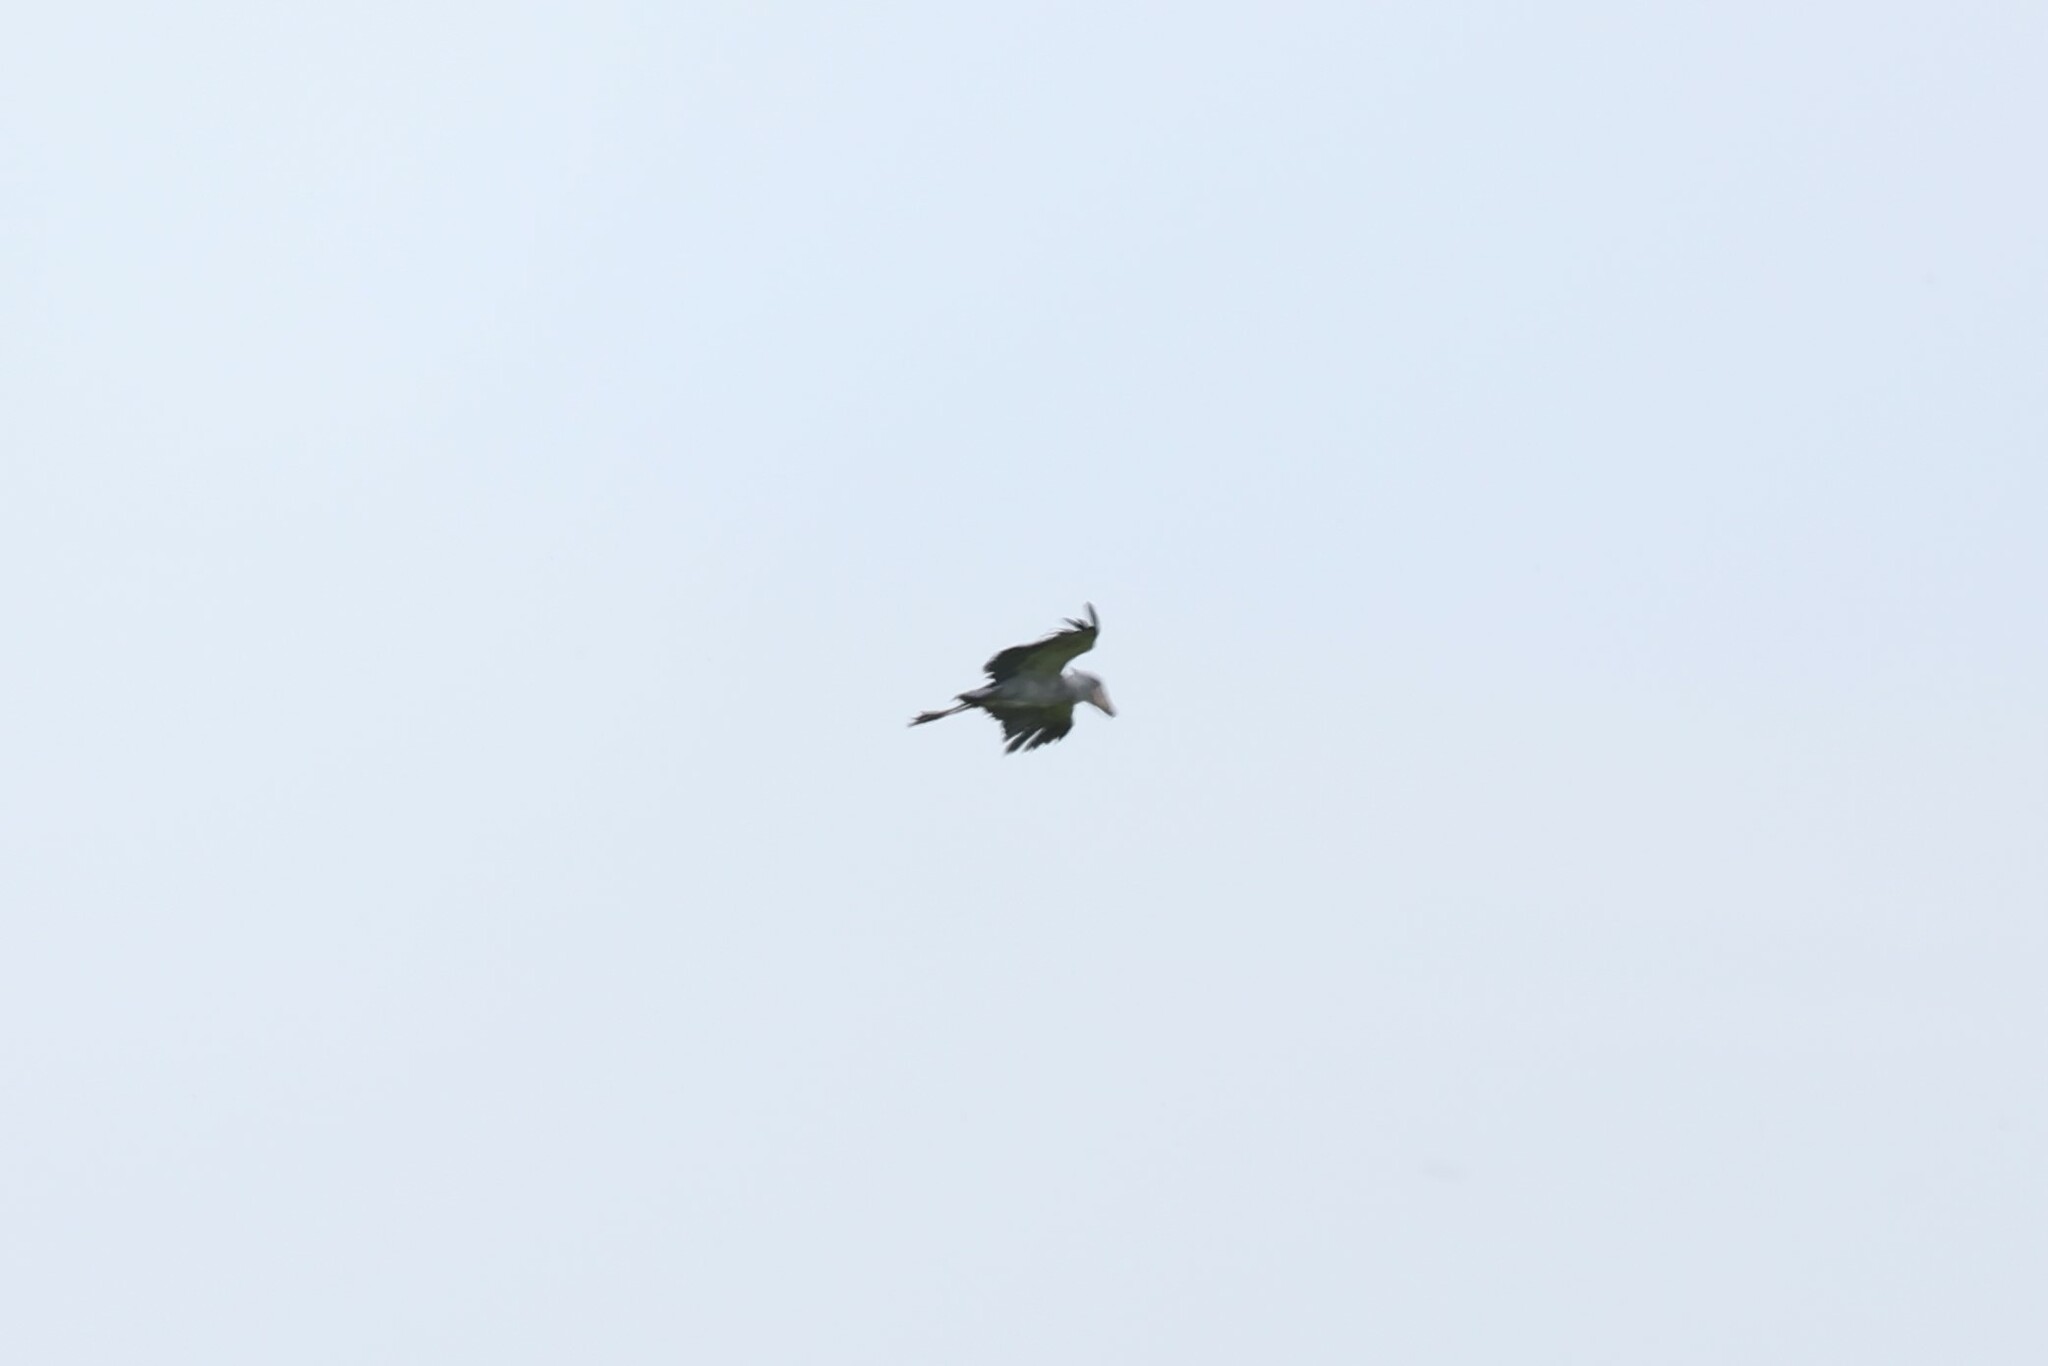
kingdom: Animalia
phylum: Chordata
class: Aves
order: Pelecaniformes
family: Balaenicipitidae
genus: Balaeniceps
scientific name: Balaeniceps rex
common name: Shoebill
